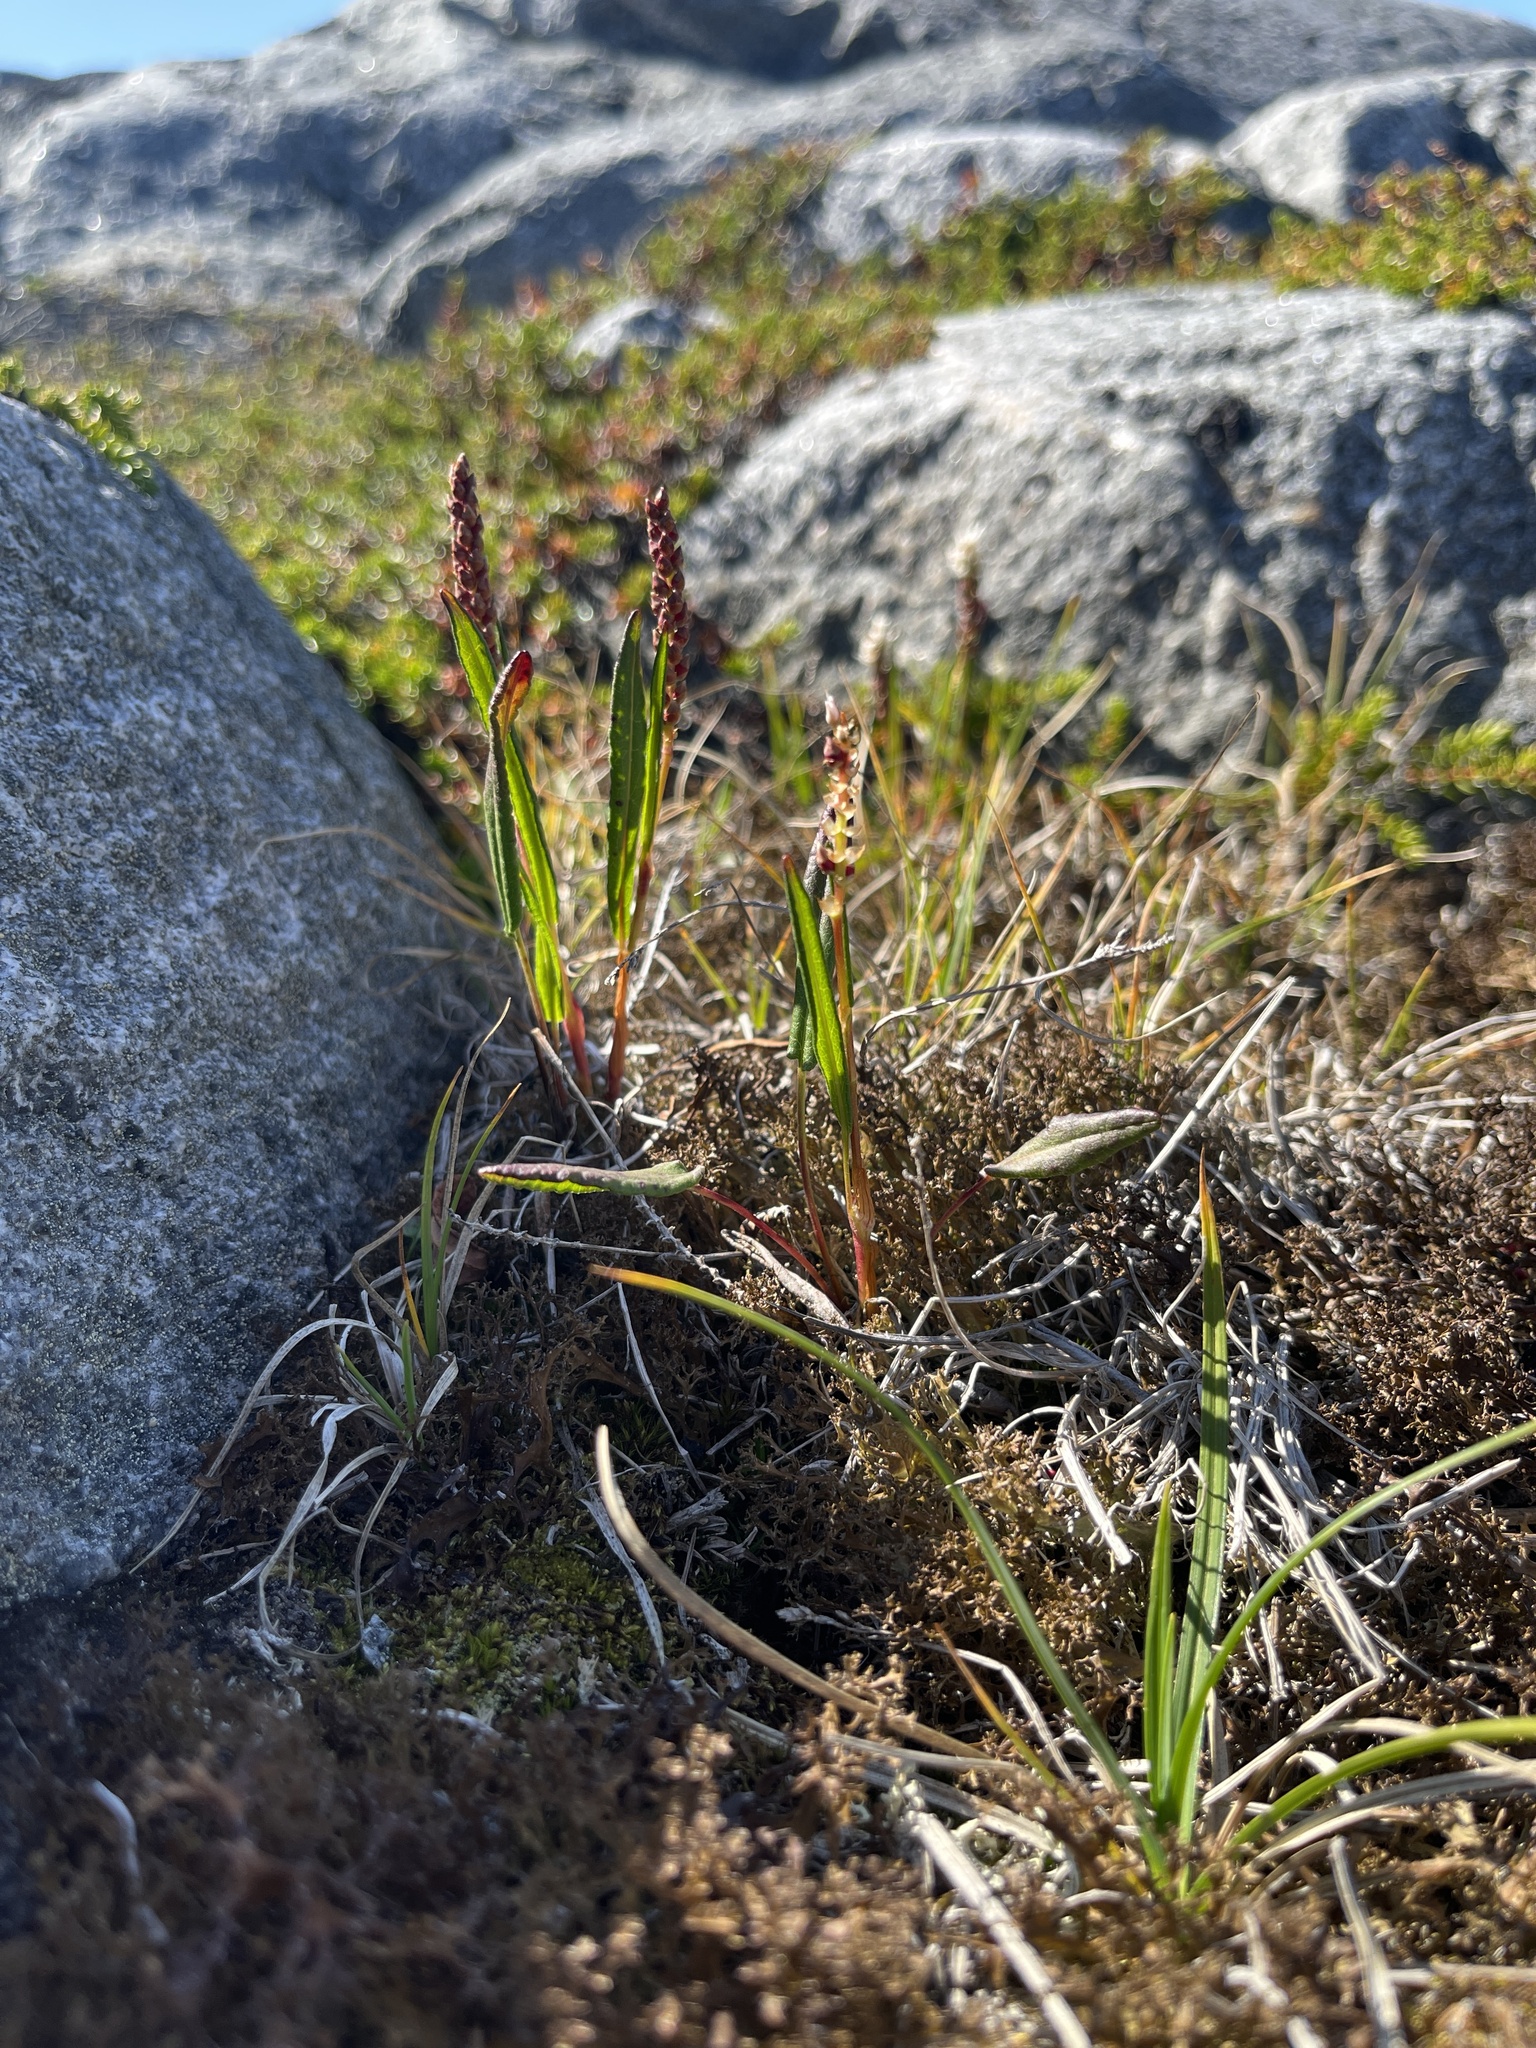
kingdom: Plantae
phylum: Tracheophyta
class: Magnoliopsida
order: Caryophyllales
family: Polygonaceae
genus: Bistorta
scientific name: Bistorta vivipara
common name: Alpine bistort
